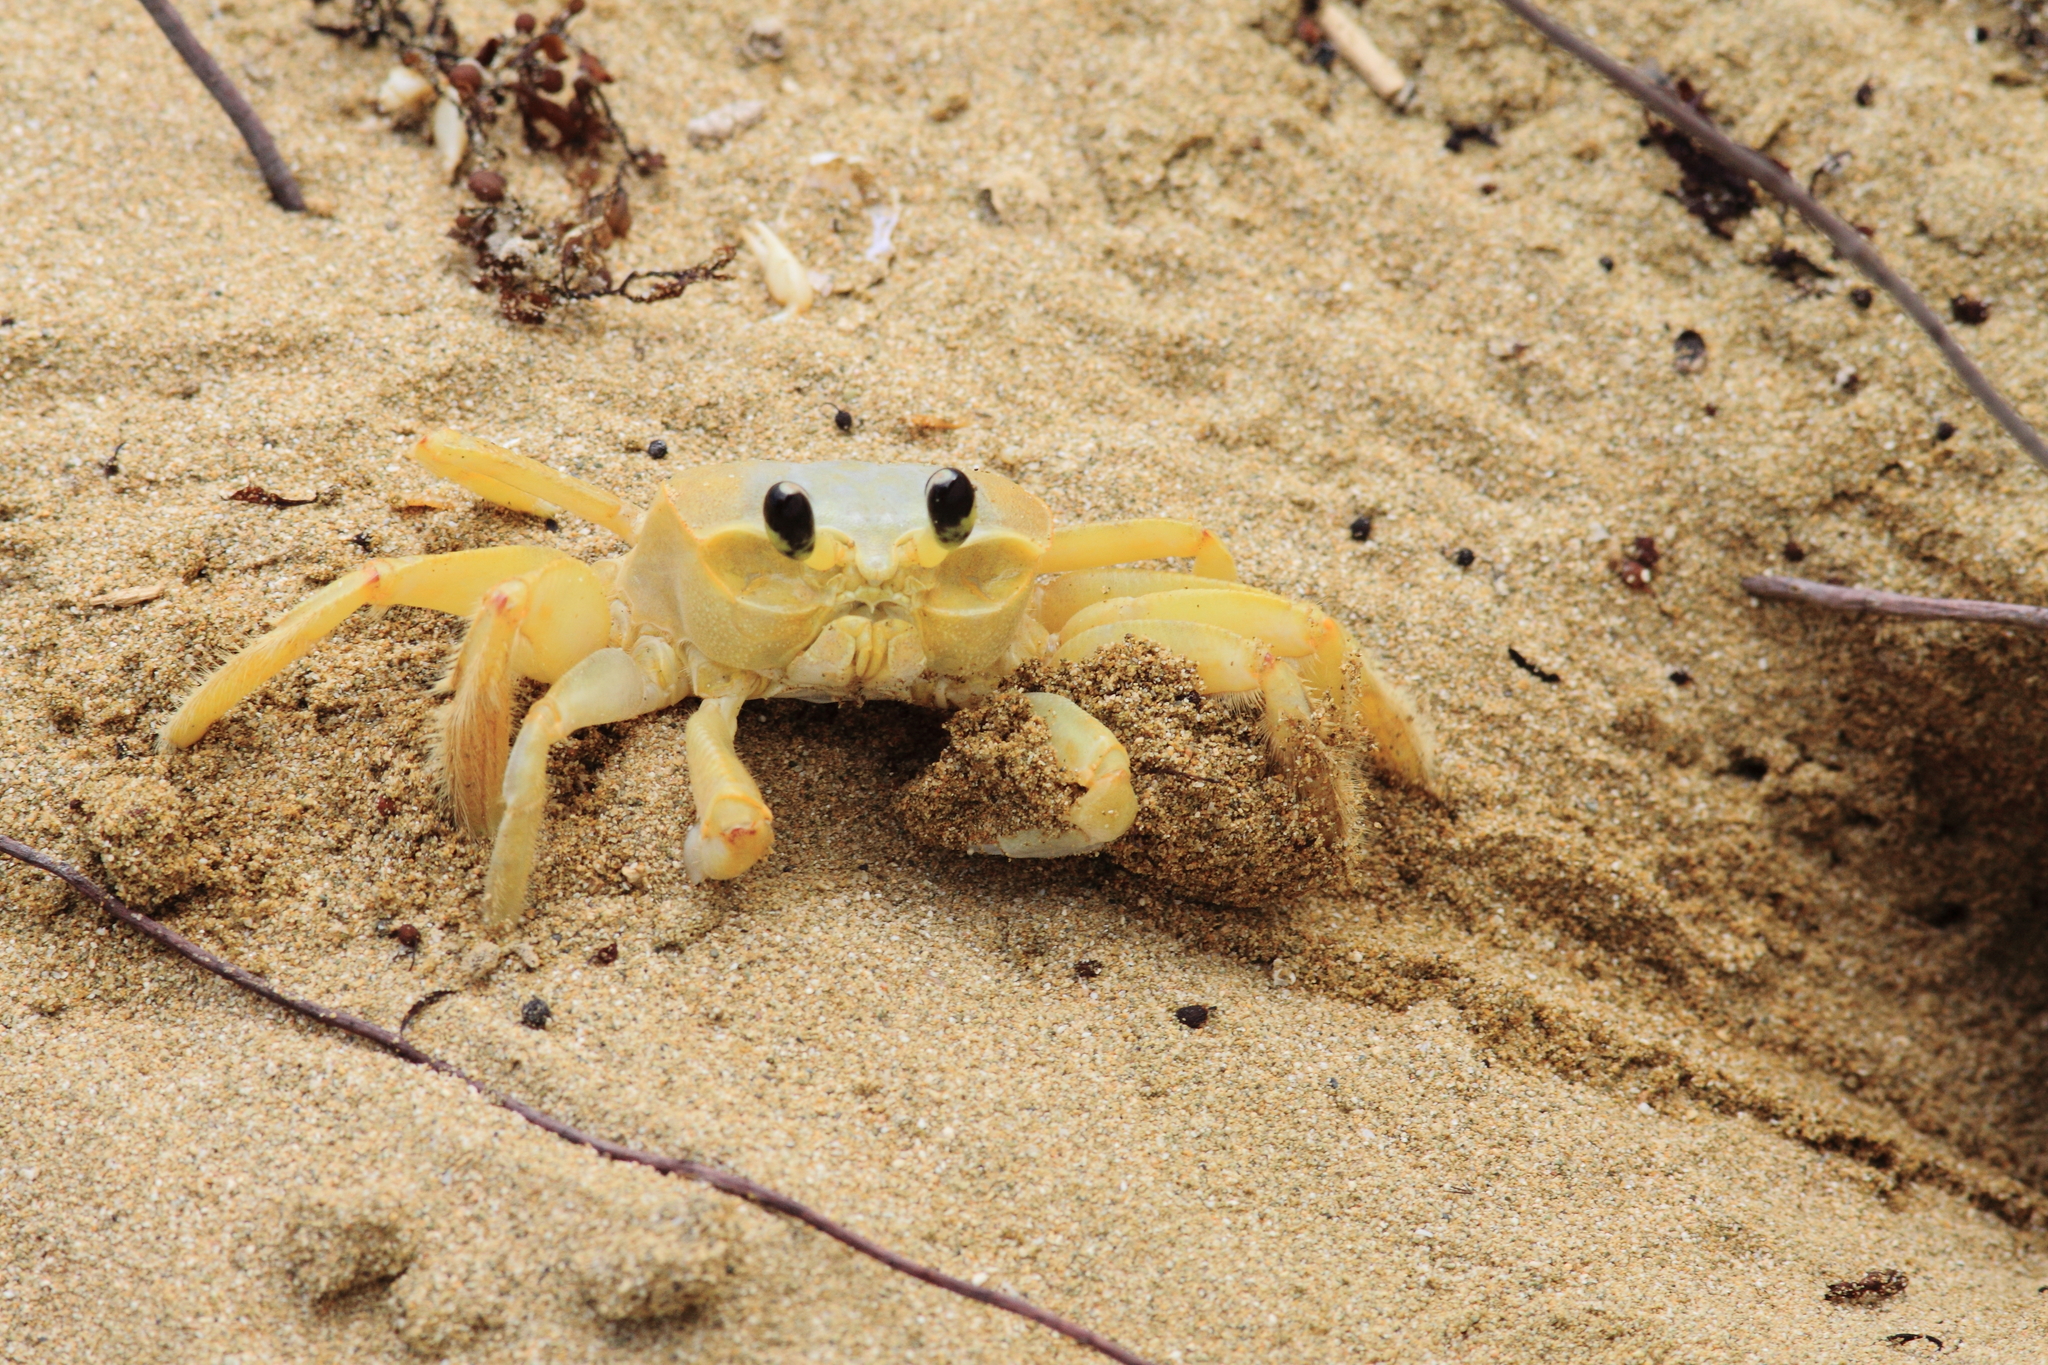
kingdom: Animalia
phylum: Arthropoda
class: Malacostraca
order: Decapoda
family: Ocypodidae
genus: Ocypode
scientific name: Ocypode quadrata
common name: Ghost crab
